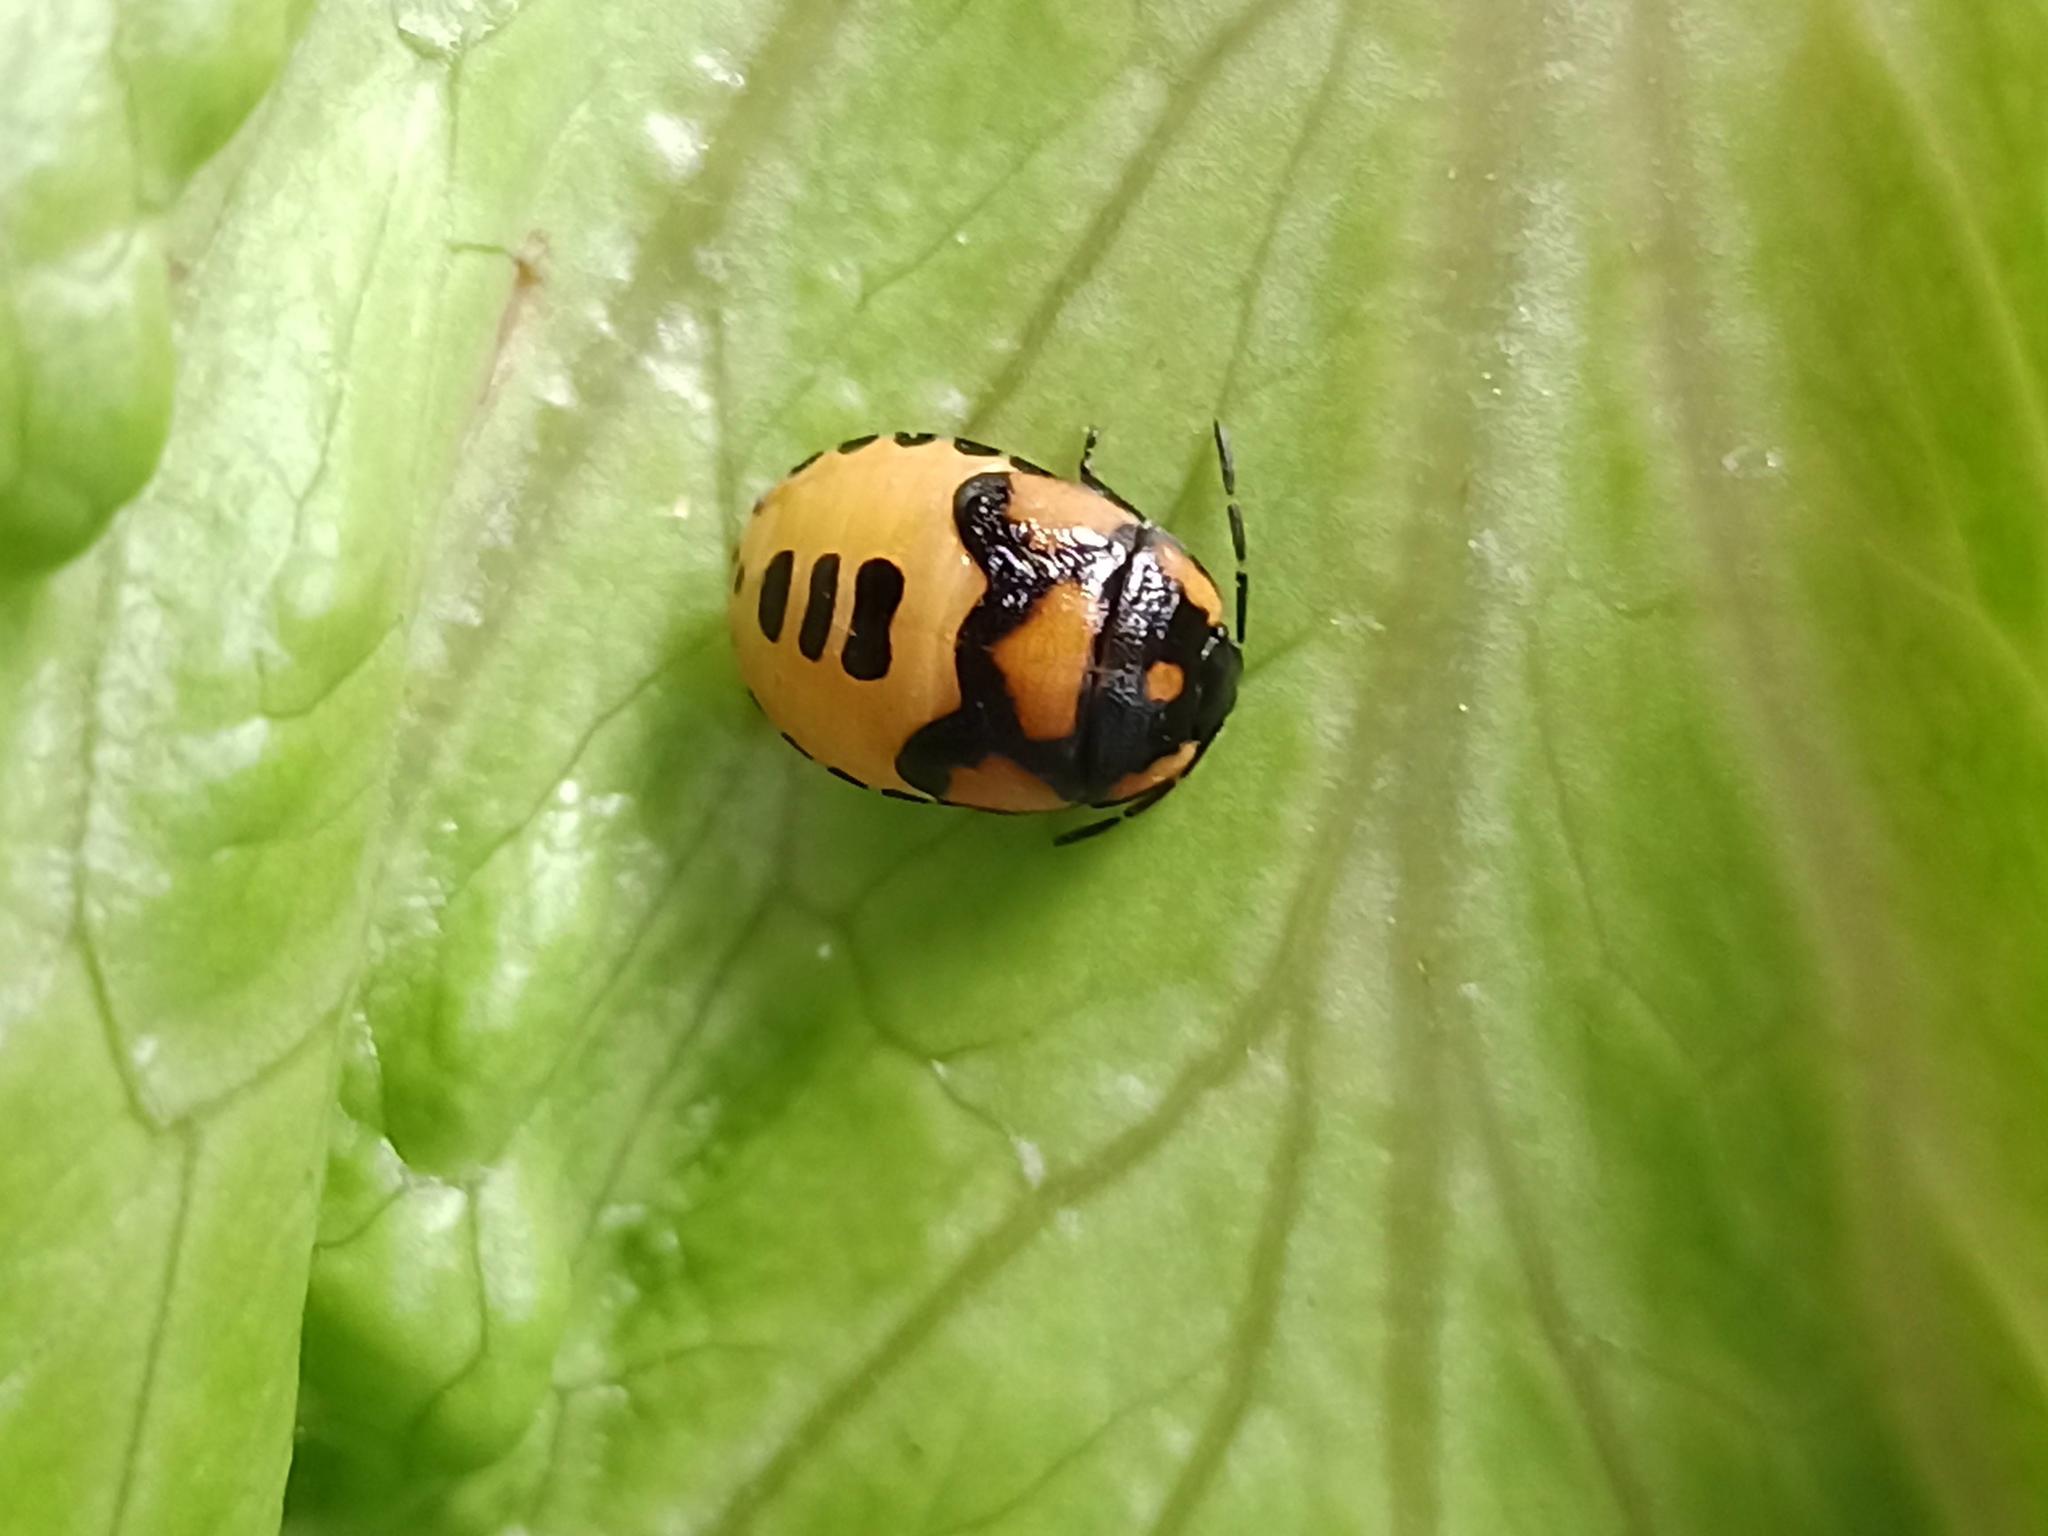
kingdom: Animalia
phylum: Arthropoda
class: Insecta
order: Hemiptera
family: Cydnidae
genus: Tritomegas
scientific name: Tritomegas bicolor
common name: Pied shieldbug
